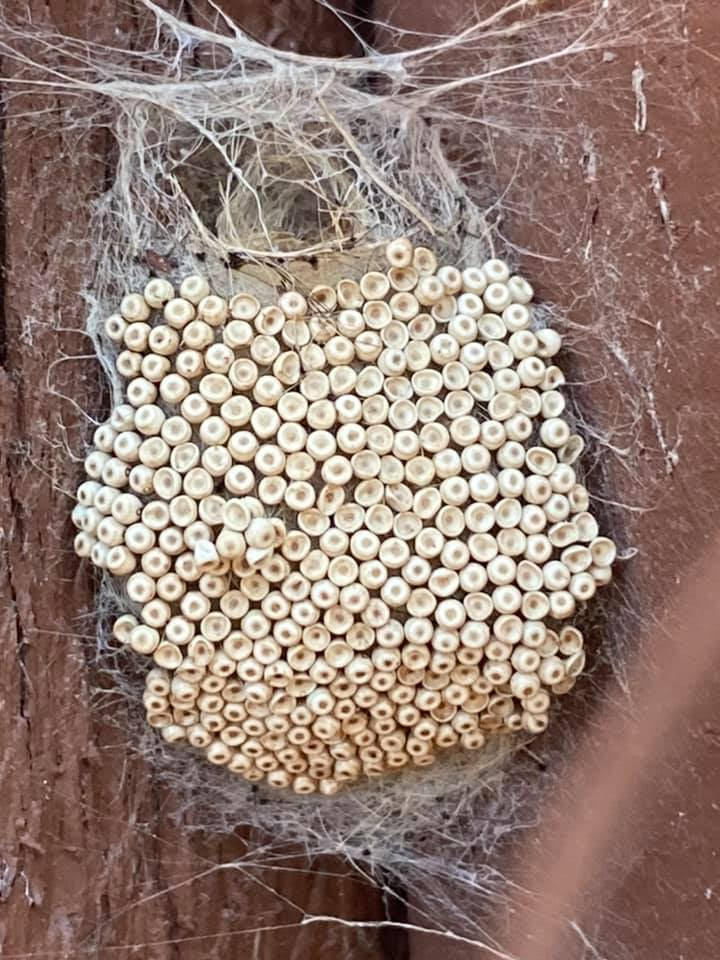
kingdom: Animalia
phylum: Arthropoda
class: Insecta
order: Lepidoptera
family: Erebidae
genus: Orgyia
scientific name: Orgyia antiqua
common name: Vapourer
